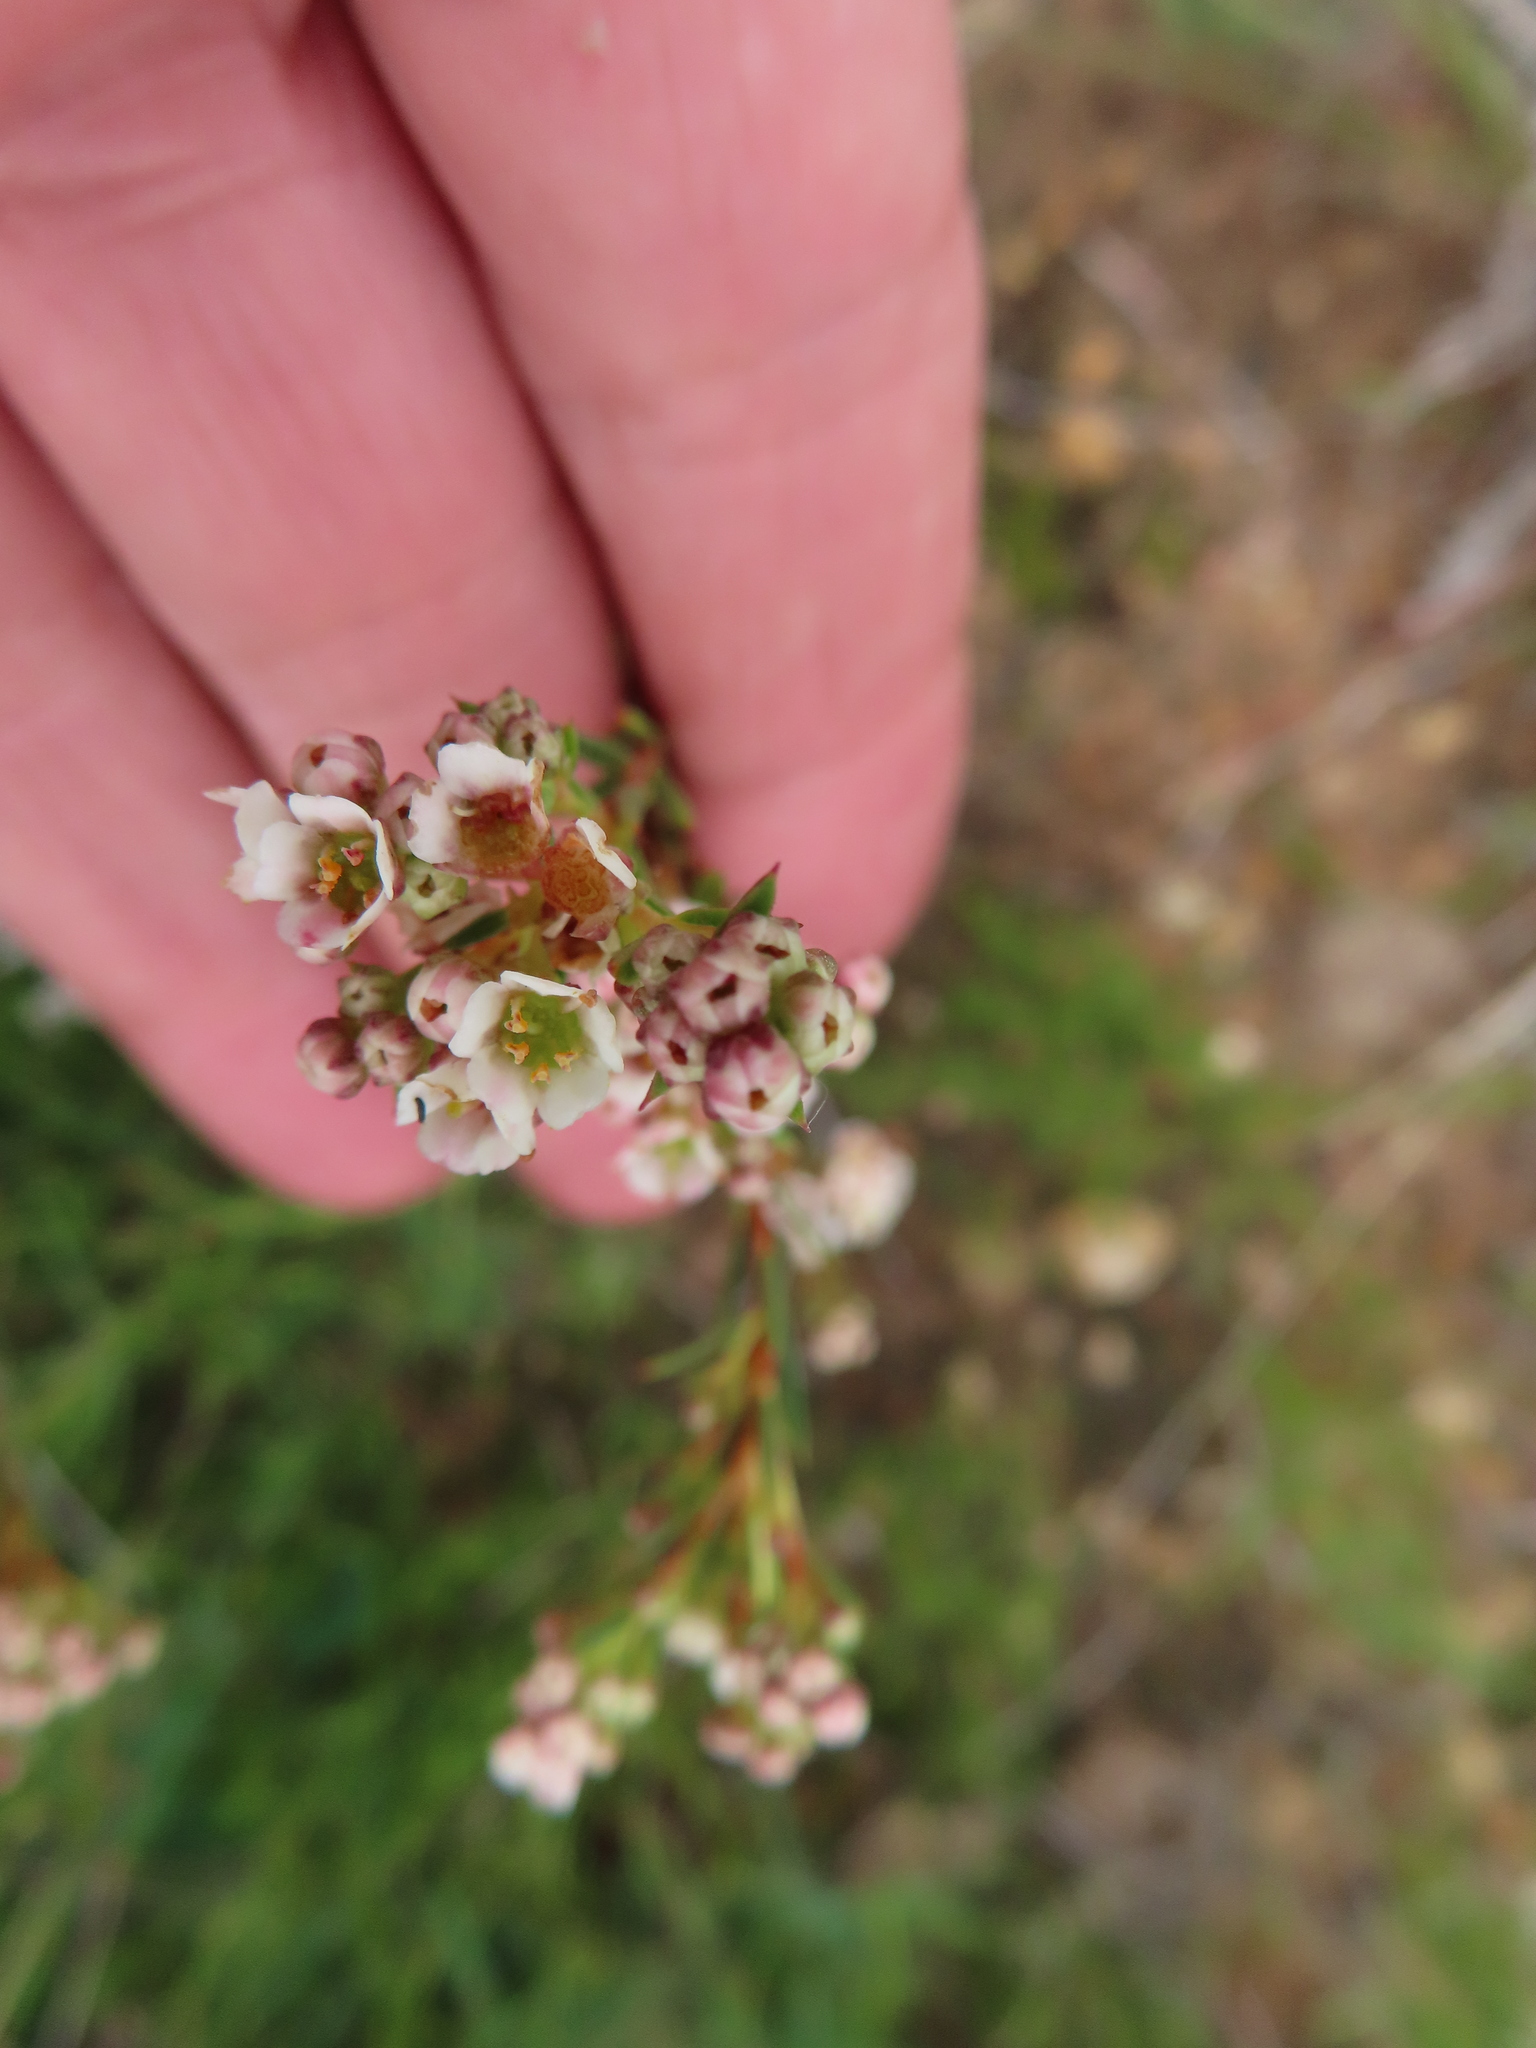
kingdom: Plantae
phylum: Tracheophyta
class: Magnoliopsida
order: Sapindales
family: Rutaceae
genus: Diosma
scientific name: Diosma hirsuta
